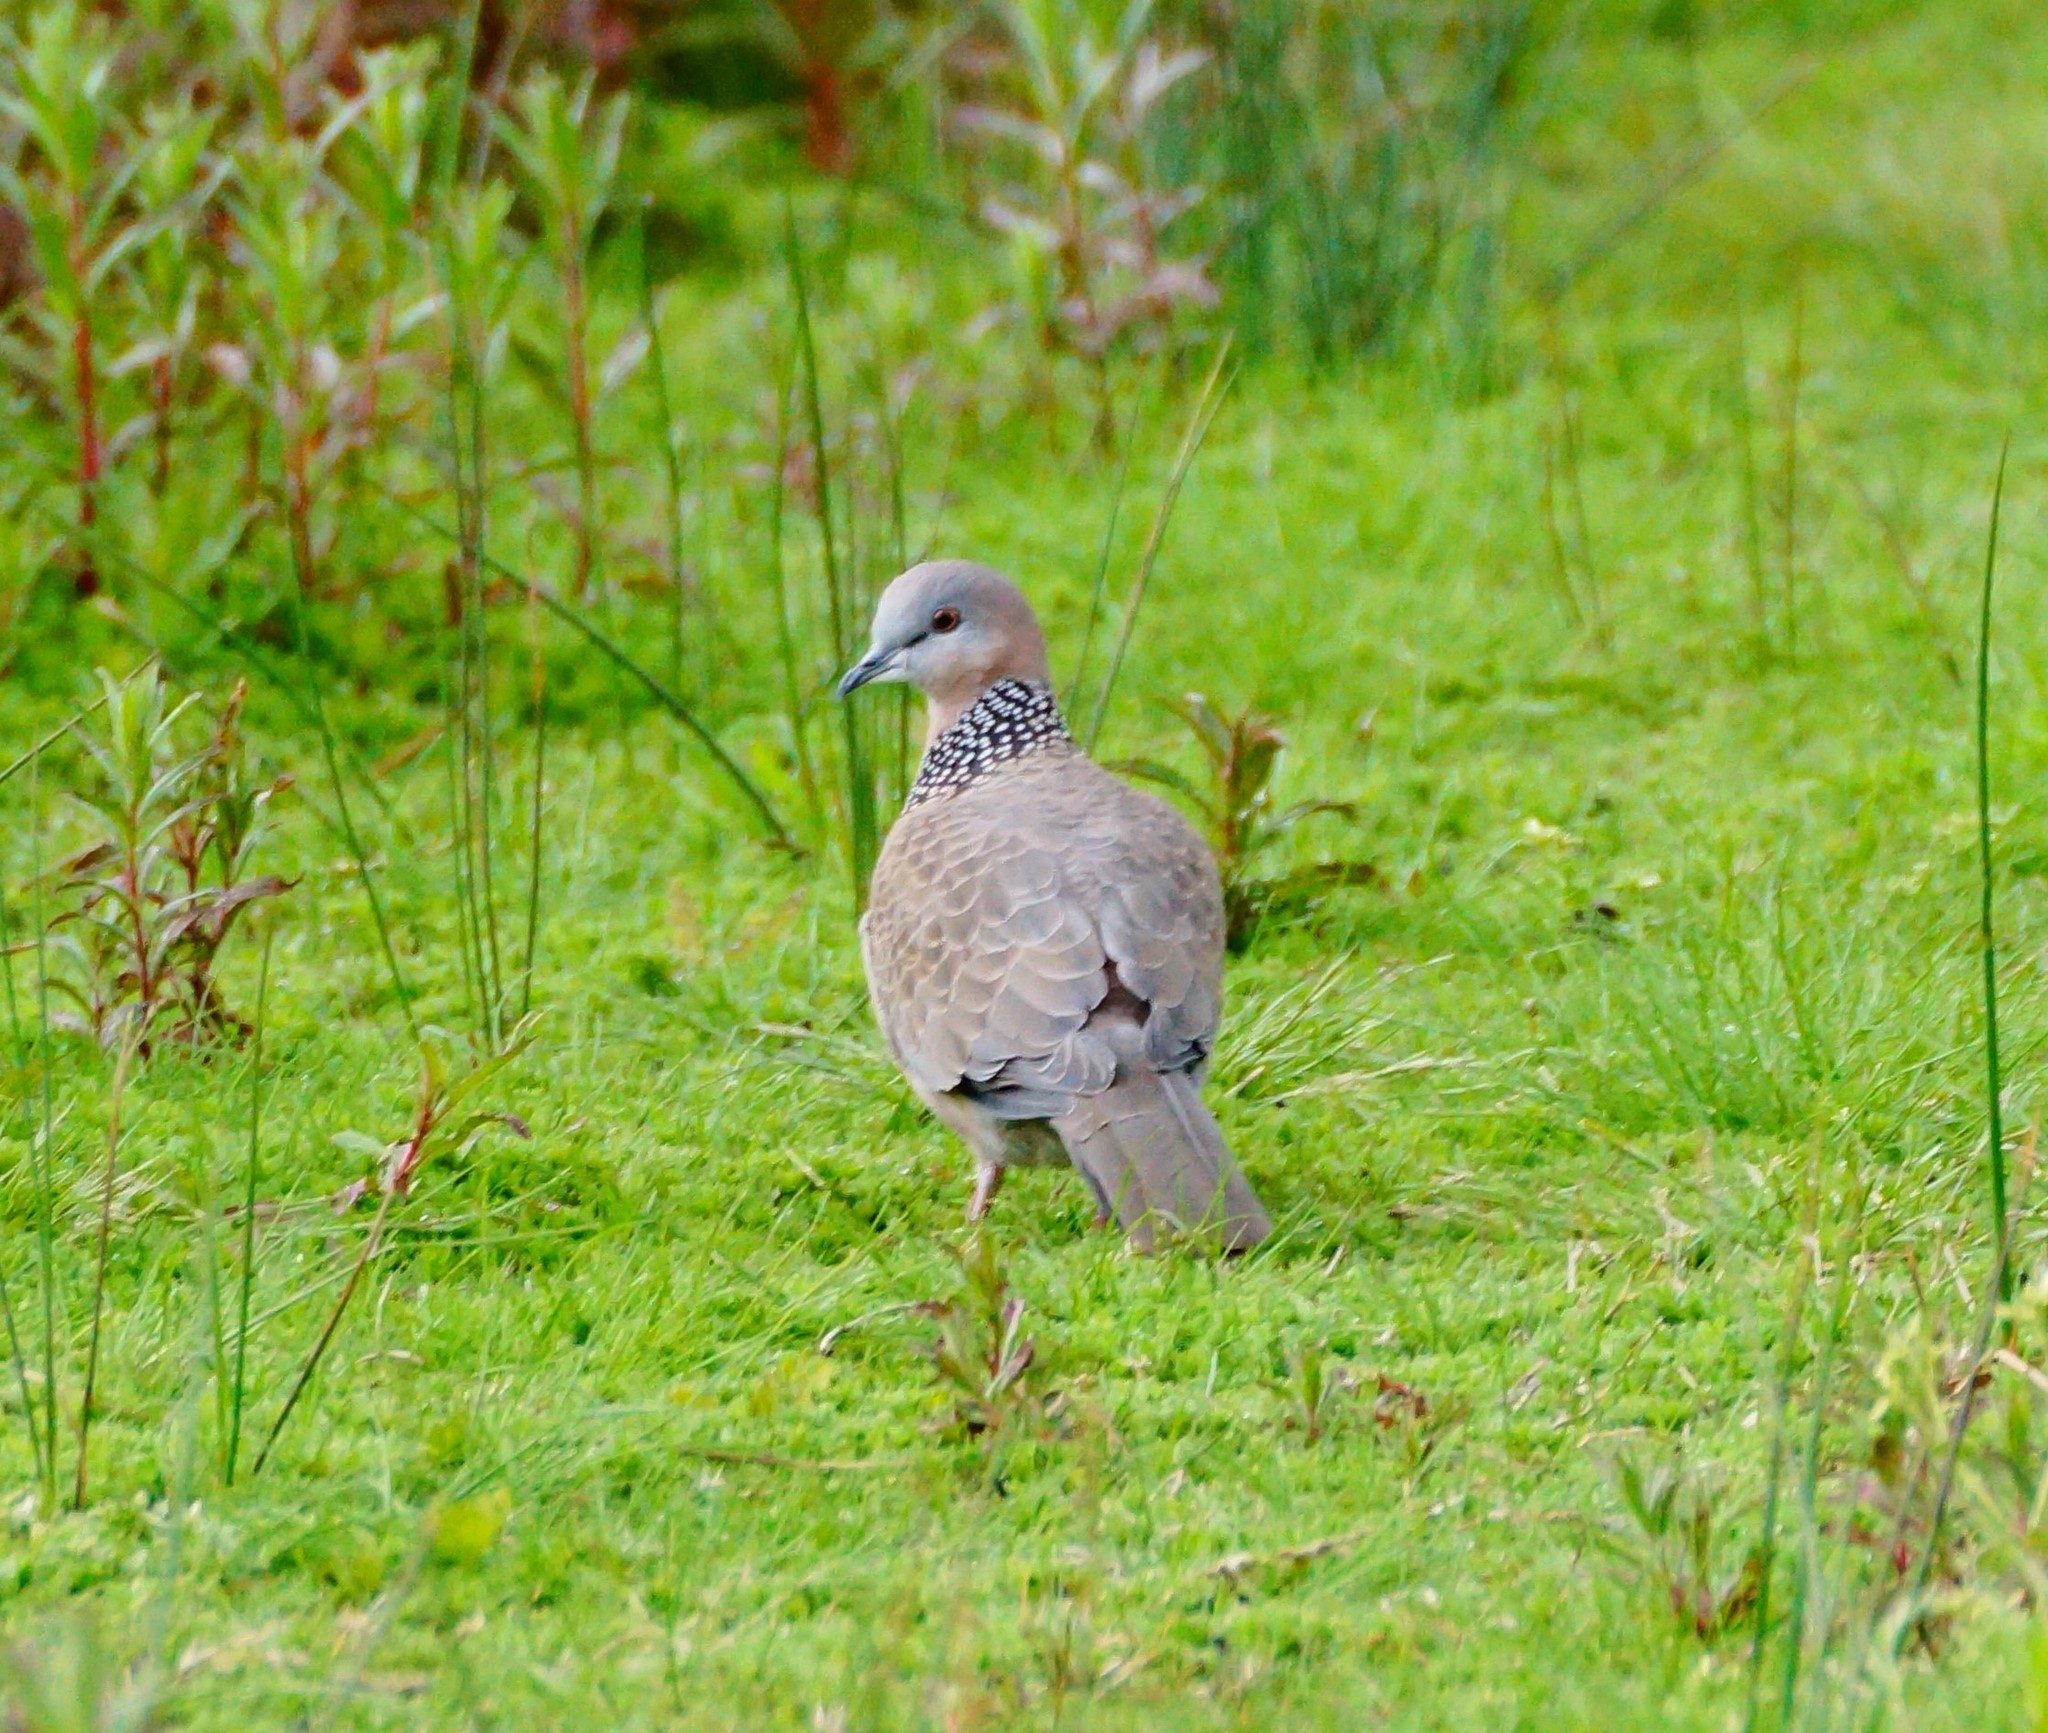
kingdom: Animalia
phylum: Chordata
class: Aves
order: Columbiformes
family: Columbidae
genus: Spilopelia
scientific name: Spilopelia chinensis
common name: Spotted dove
